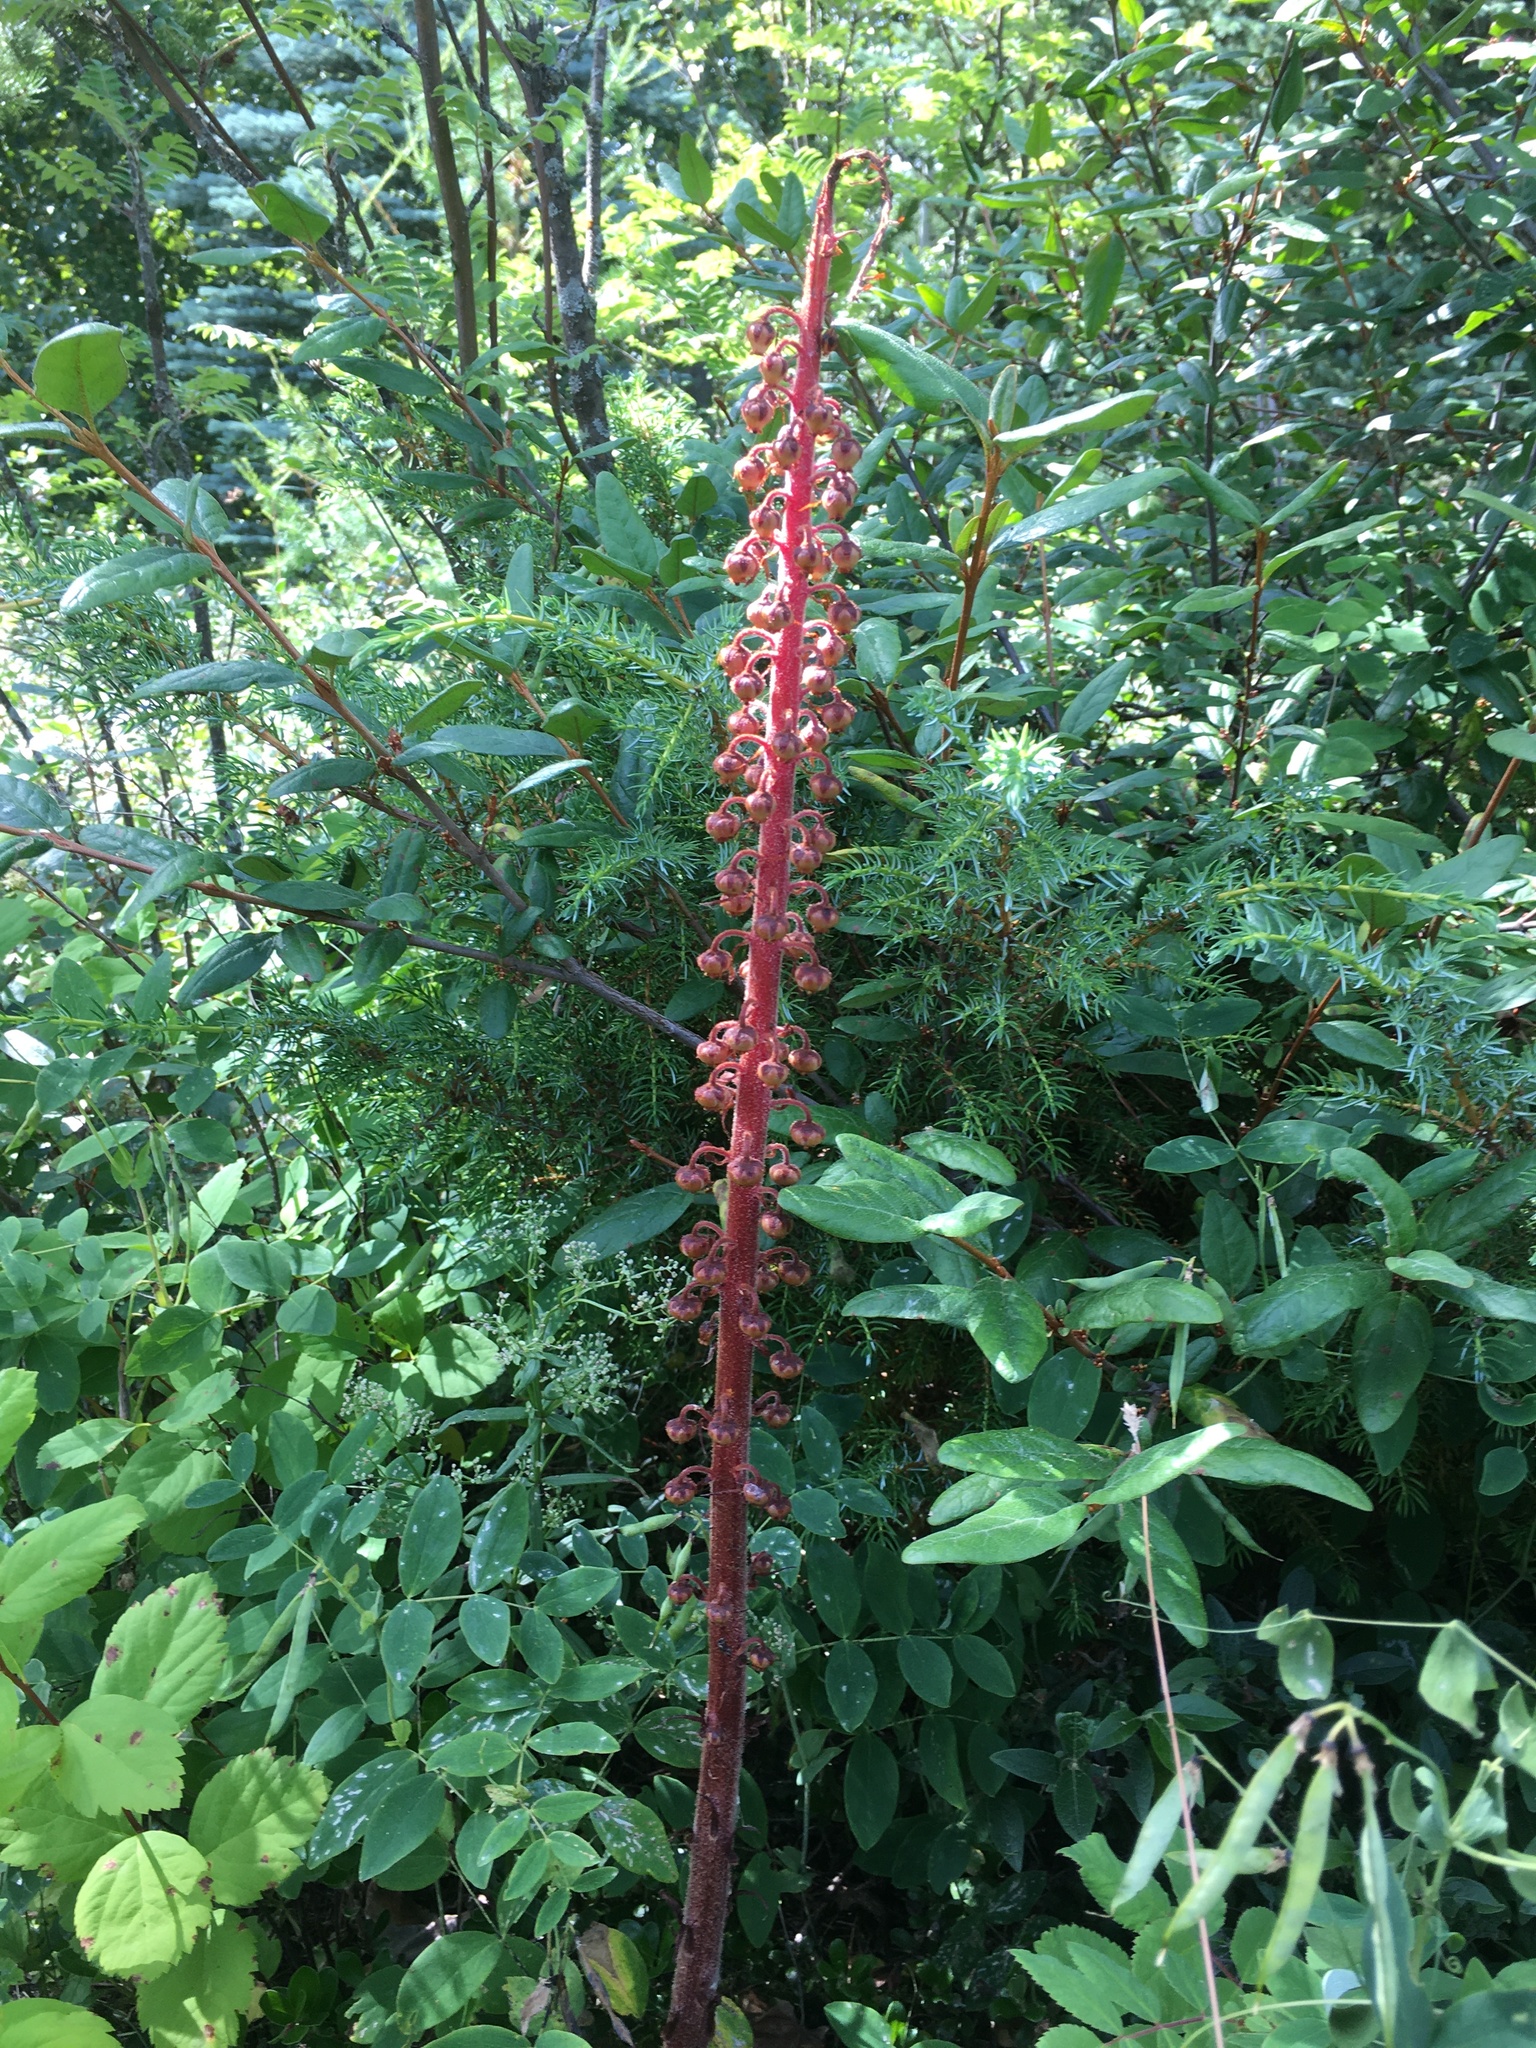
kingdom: Plantae
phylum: Tracheophyta
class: Magnoliopsida
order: Ericales
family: Ericaceae
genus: Pterospora
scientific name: Pterospora andromedea
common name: Giant bird's-nest
